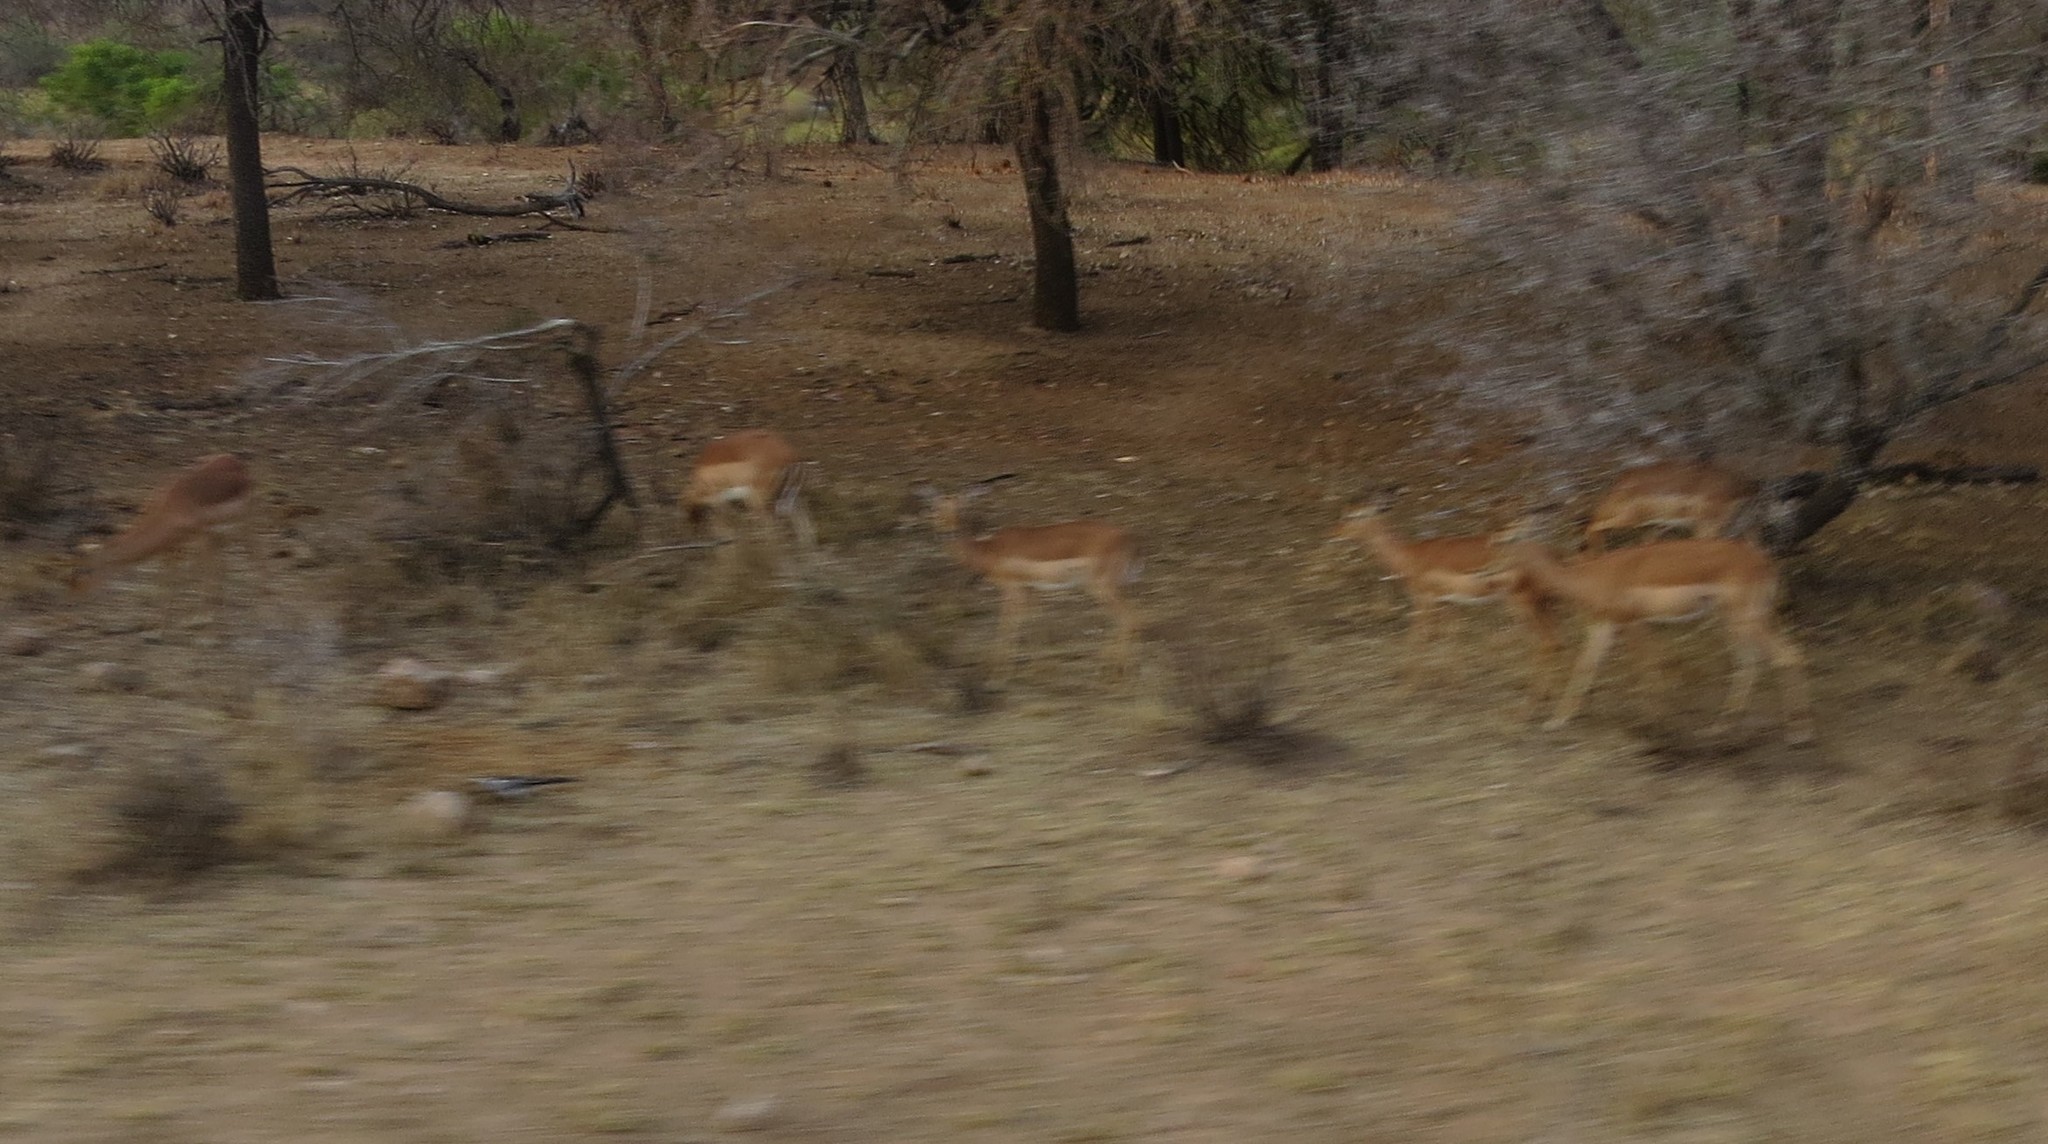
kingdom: Animalia
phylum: Chordata
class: Mammalia
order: Artiodactyla
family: Bovidae
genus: Aepyceros
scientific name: Aepyceros melampus
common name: Impala
